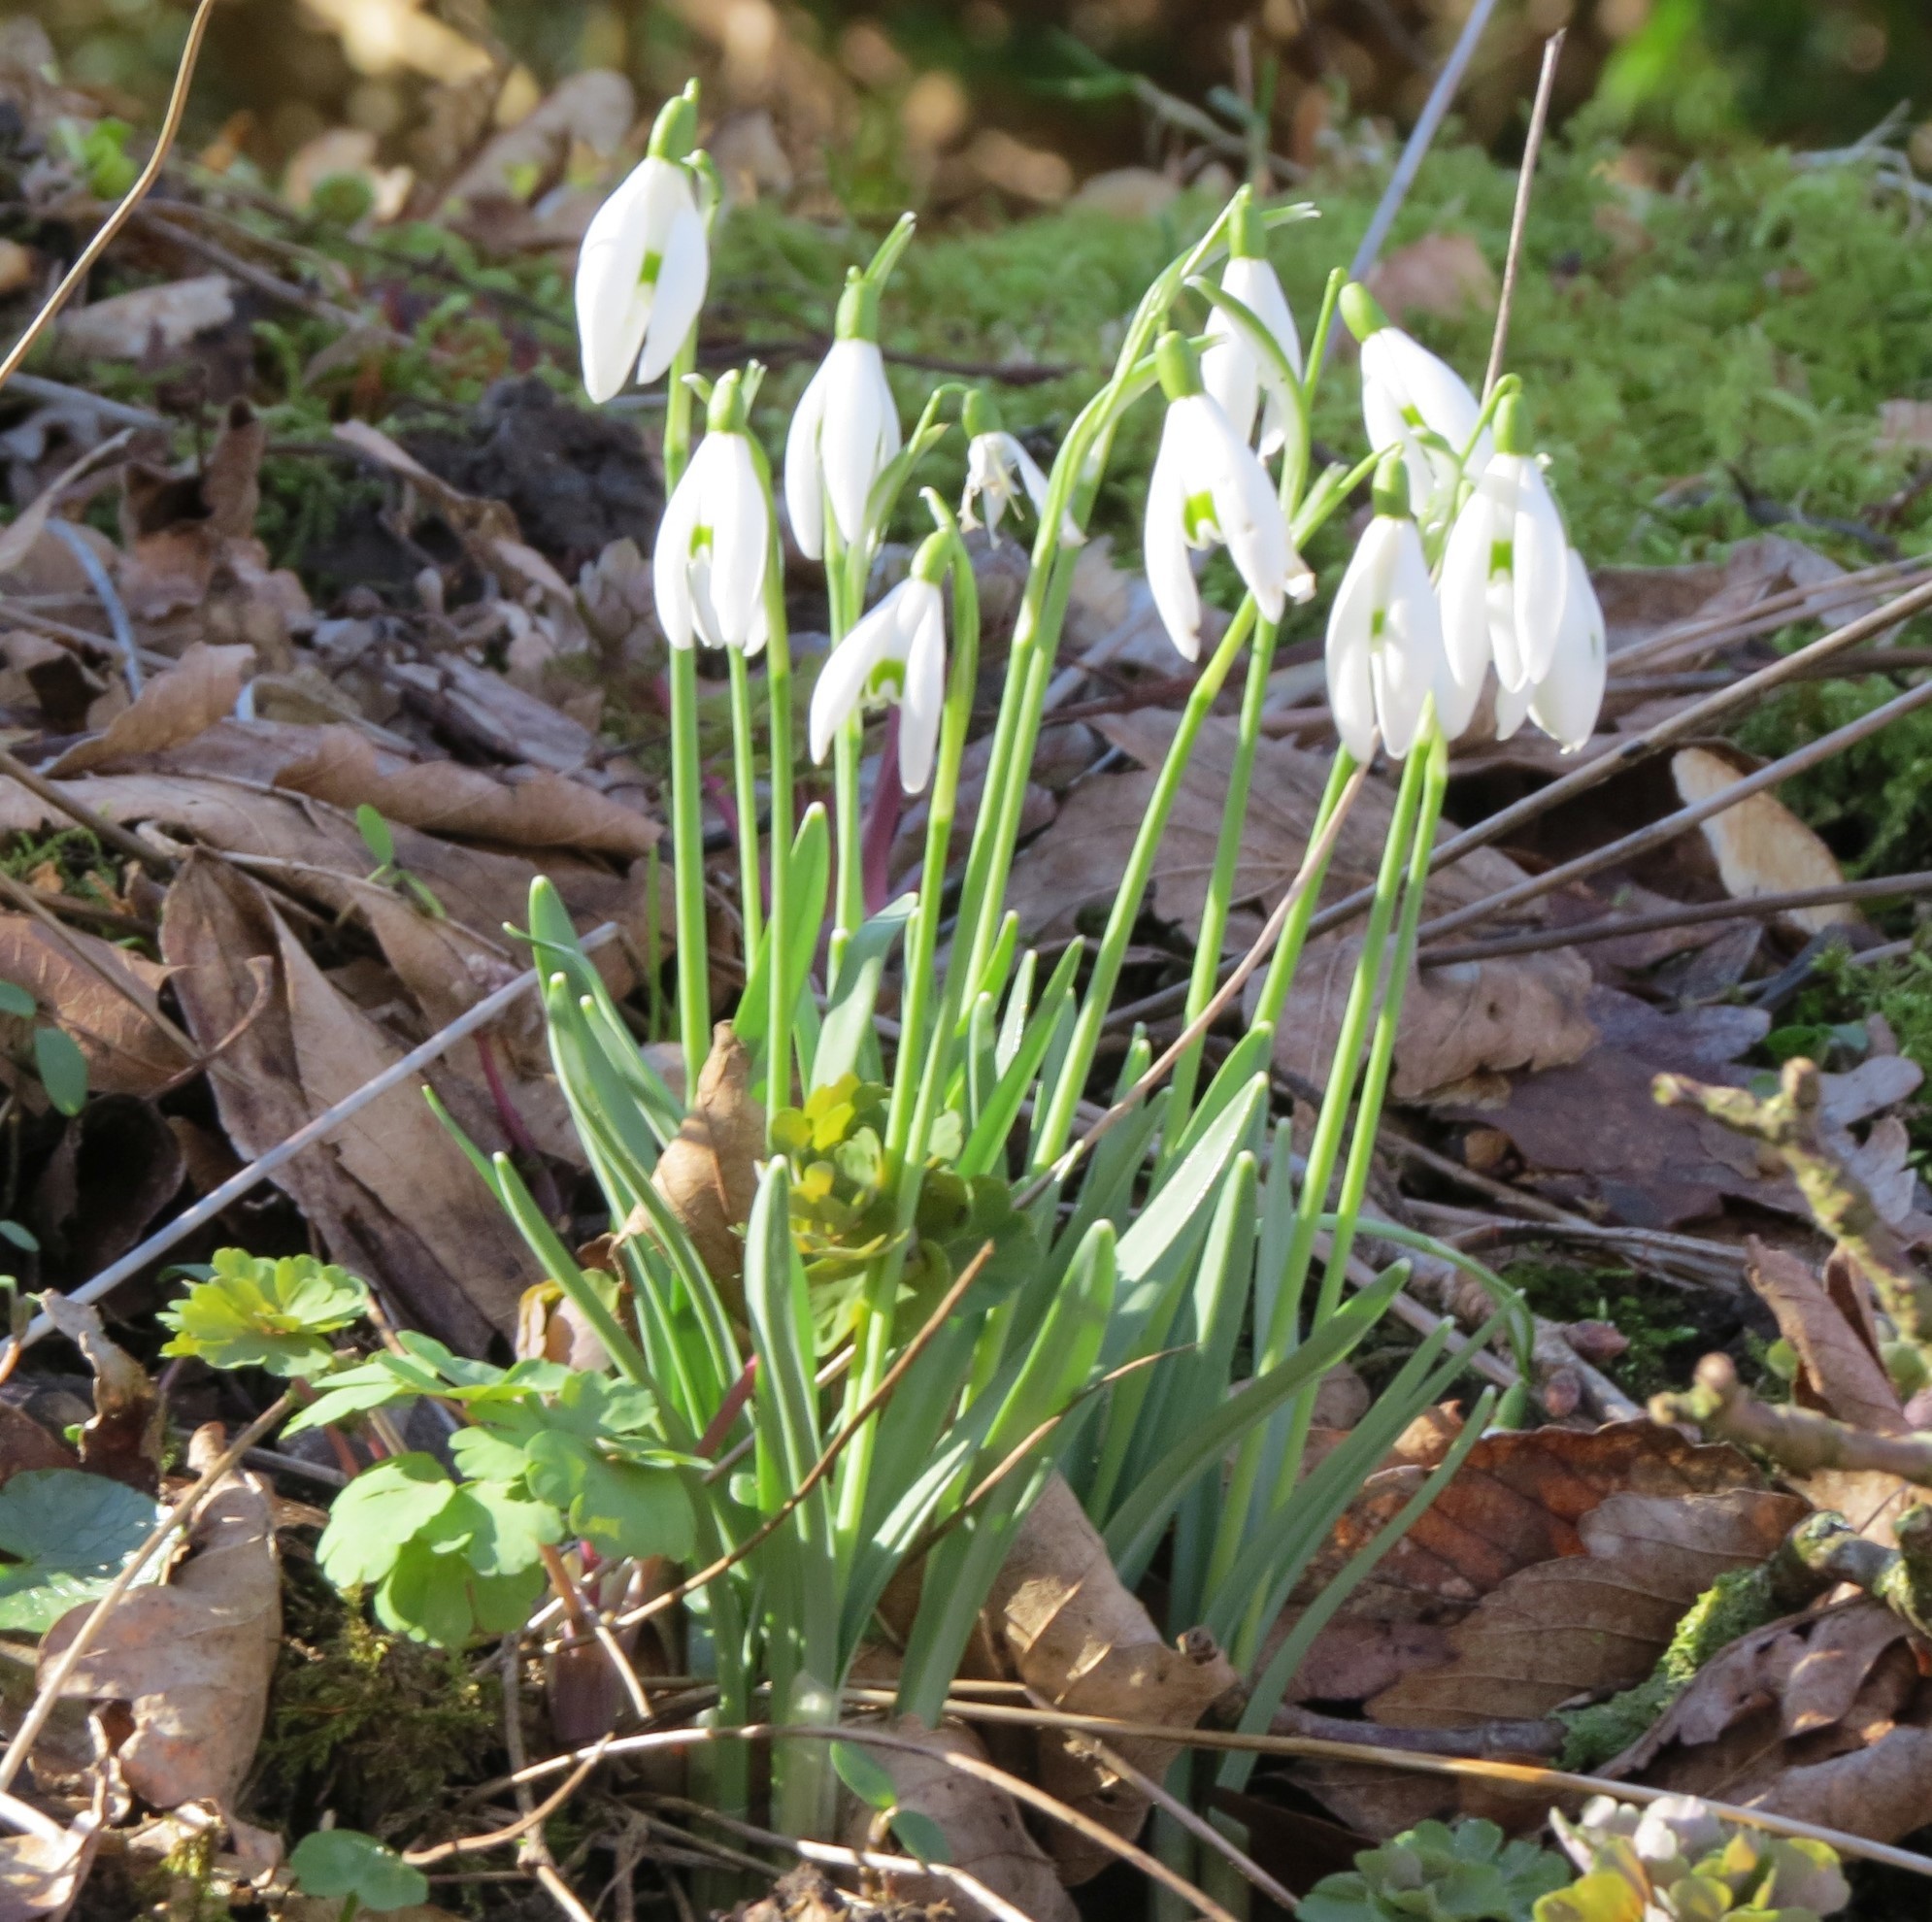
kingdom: Plantae
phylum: Tracheophyta
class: Liliopsida
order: Asparagales
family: Amaryllidaceae
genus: Galanthus
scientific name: Galanthus nivalis
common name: Snowdrop
